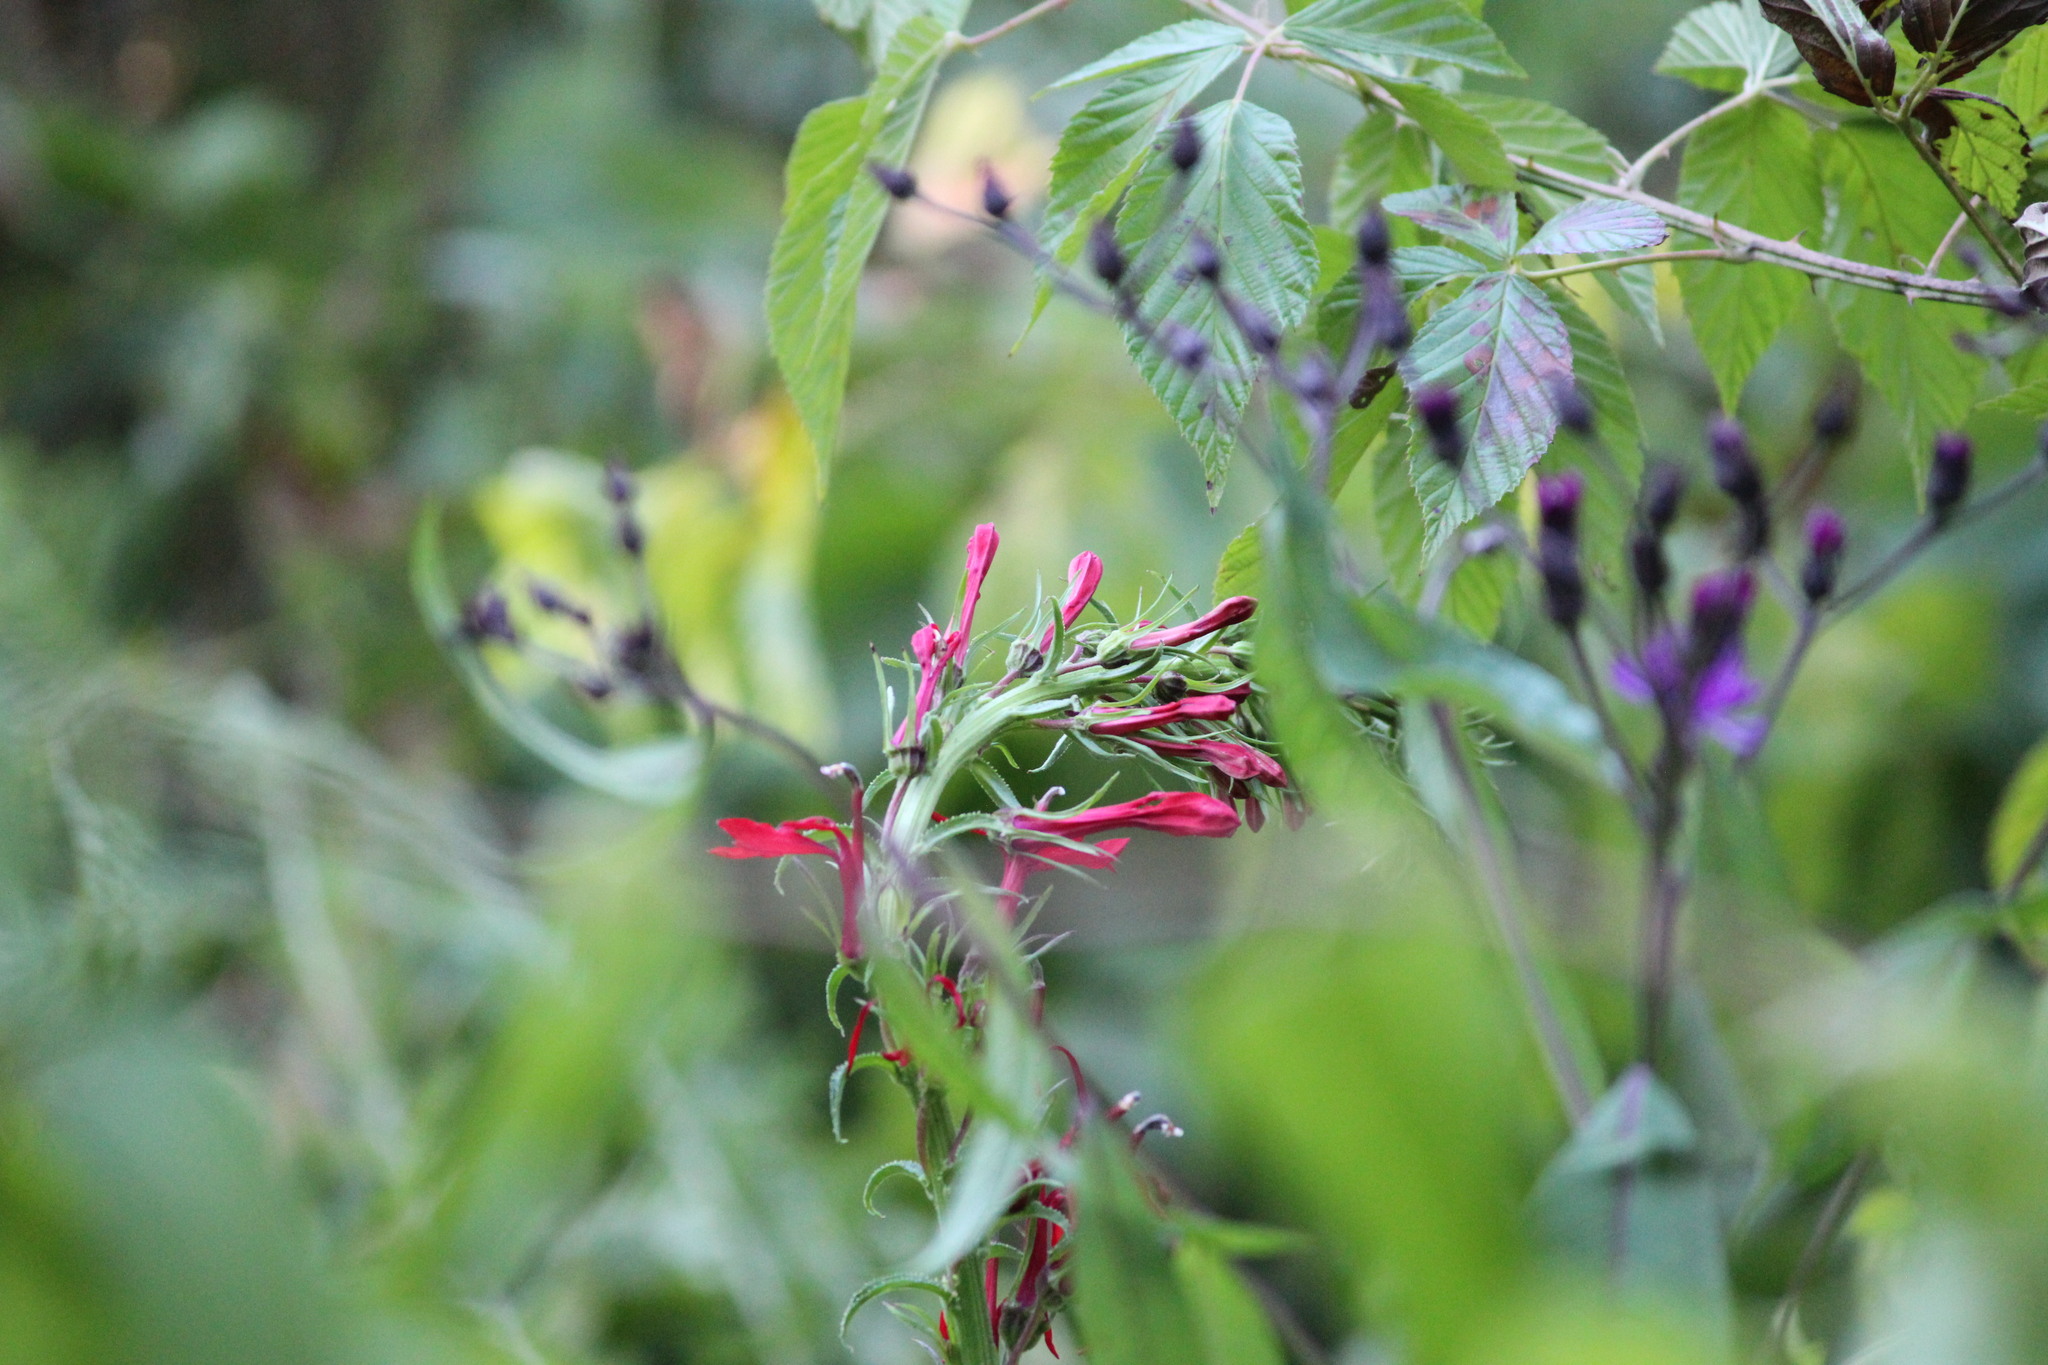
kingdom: Plantae
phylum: Tracheophyta
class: Magnoliopsida
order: Asterales
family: Campanulaceae
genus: Lobelia
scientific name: Lobelia cardinalis
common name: Cardinal flower
